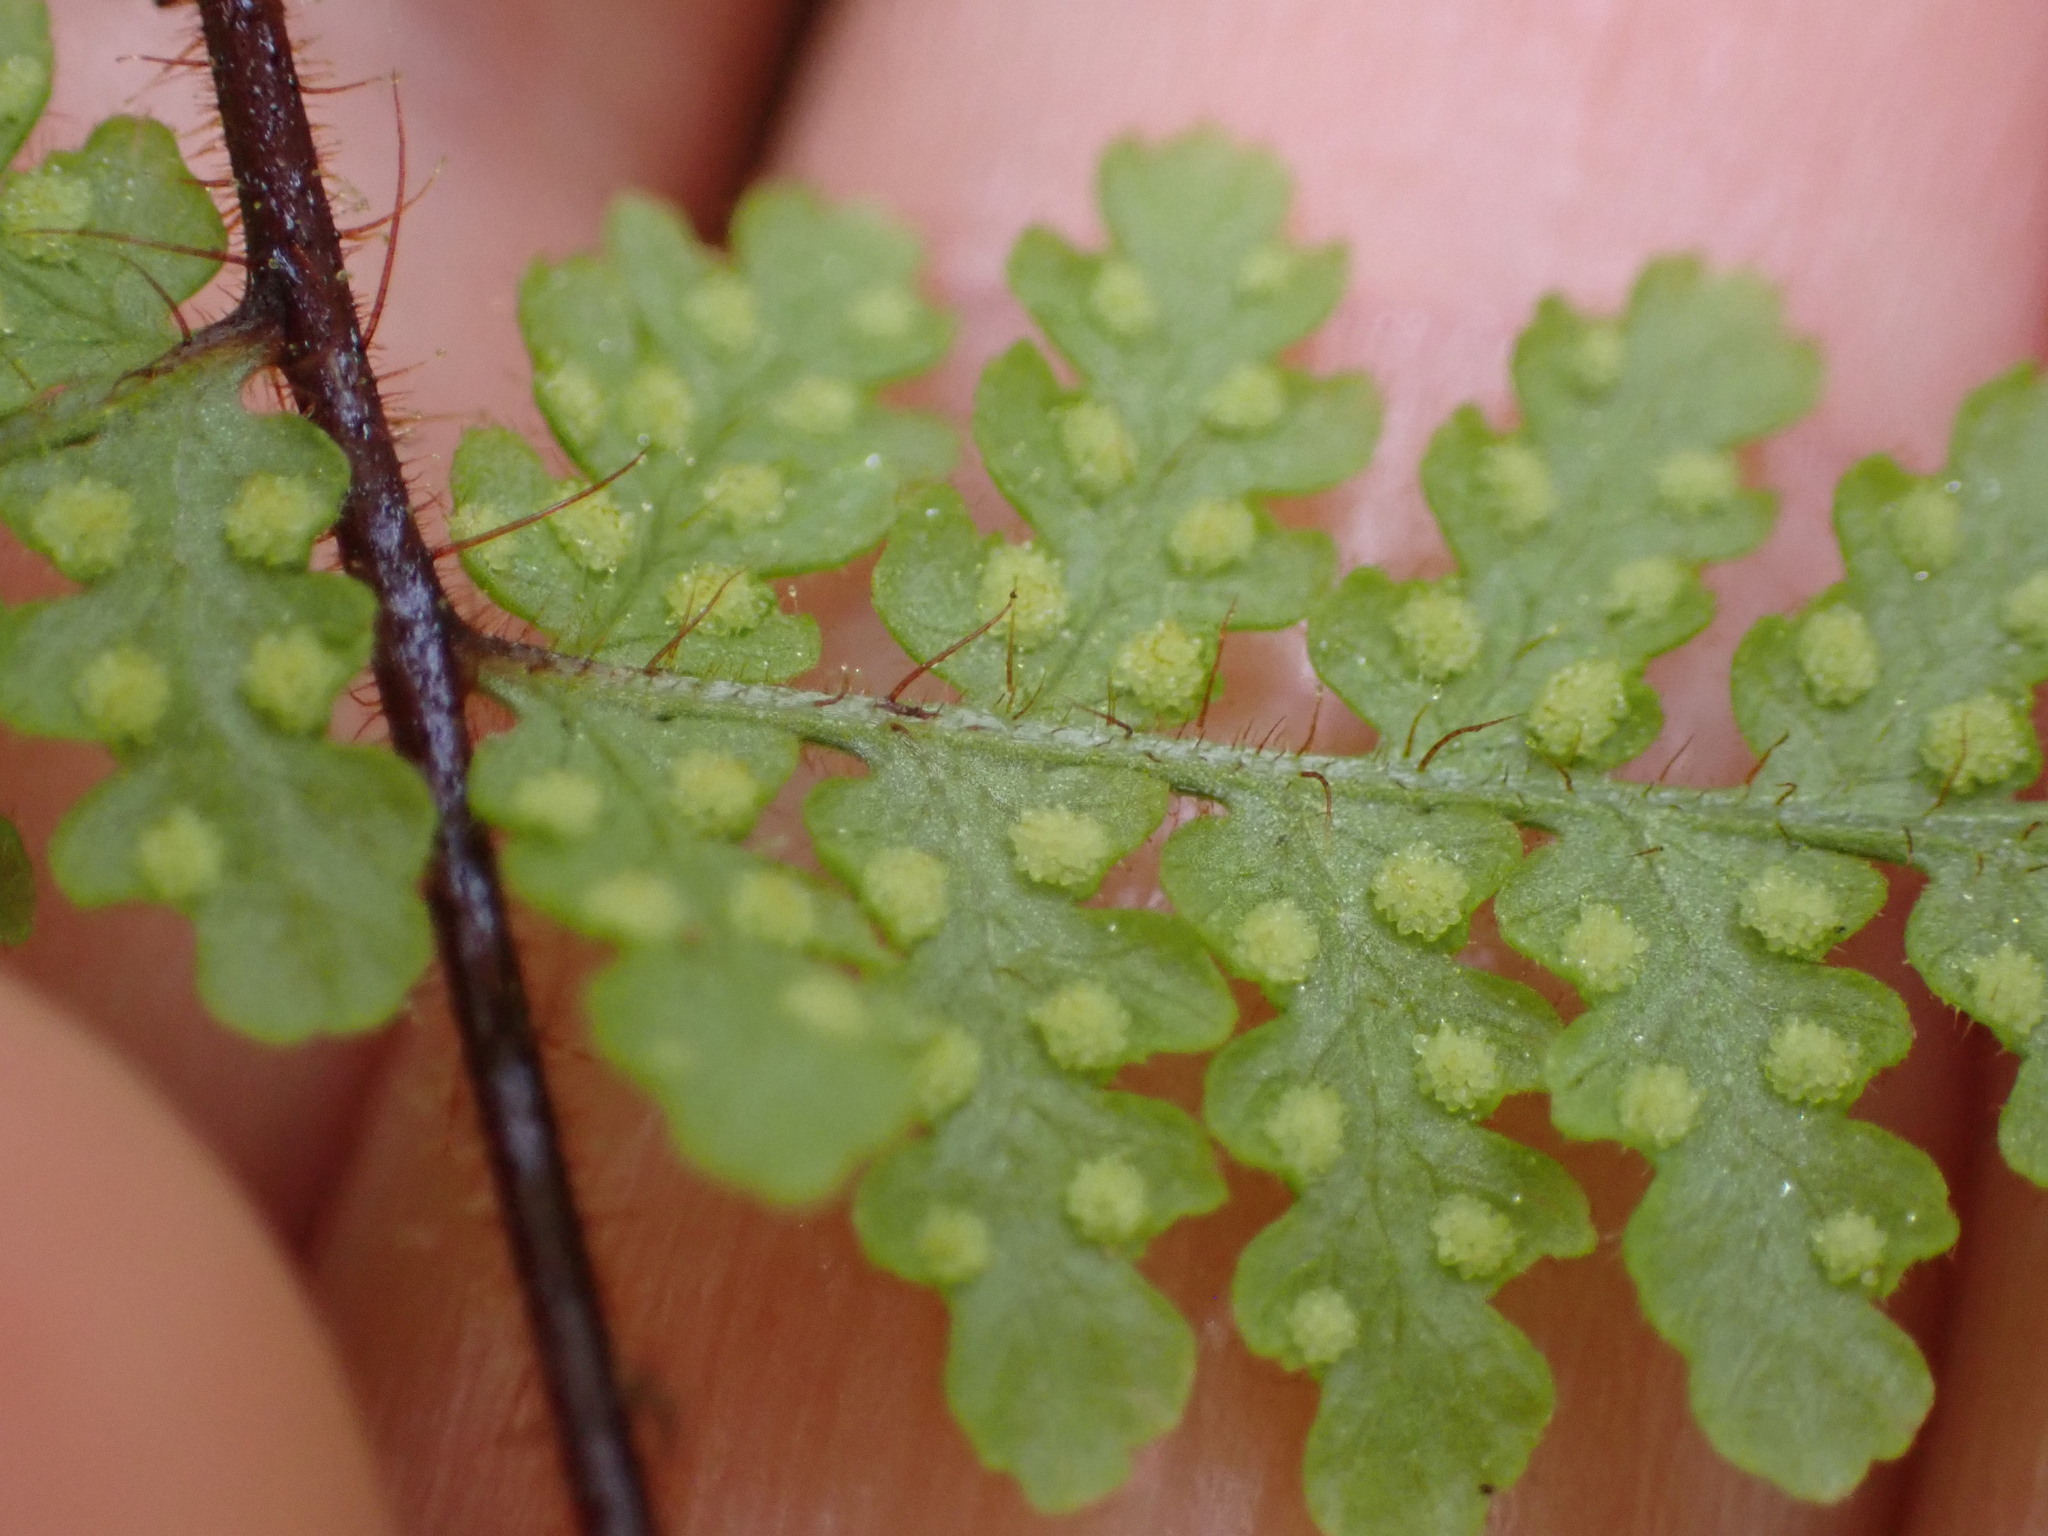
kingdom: Plantae
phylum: Tracheophyta
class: Polypodiopsida
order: Polypodiales
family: Dennstaedtiaceae
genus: Hypolepis
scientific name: Hypolepis rugosula
